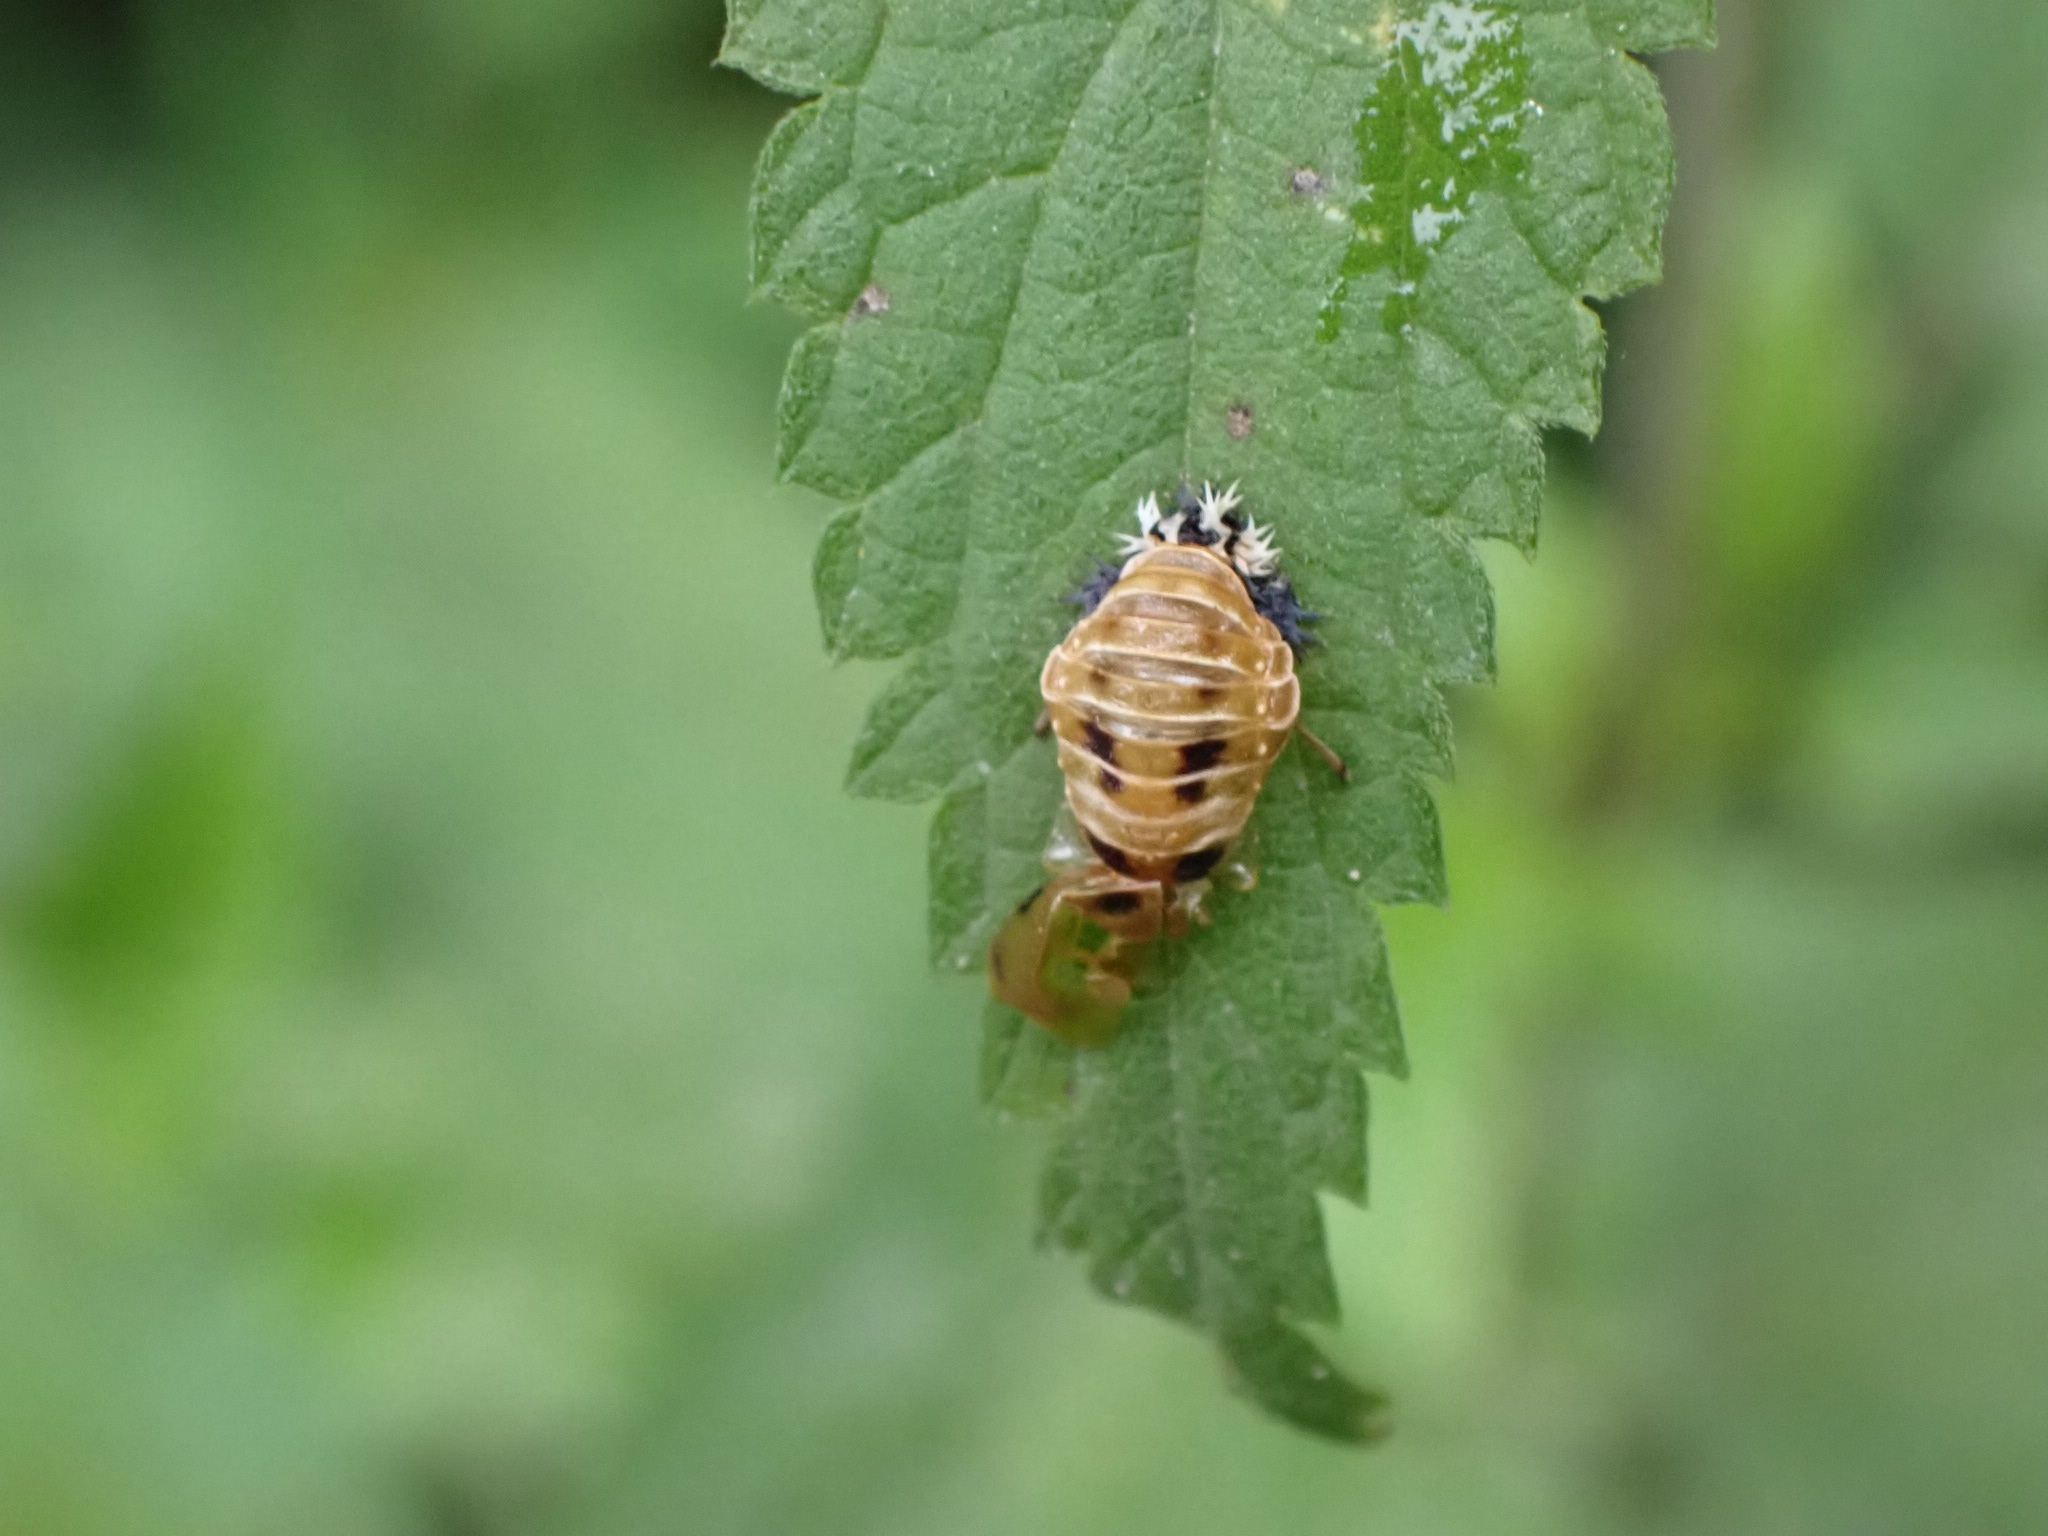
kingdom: Animalia
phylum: Arthropoda
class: Insecta
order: Coleoptera
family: Coccinellidae
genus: Harmonia
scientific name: Harmonia axyridis
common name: Harlequin ladybird
